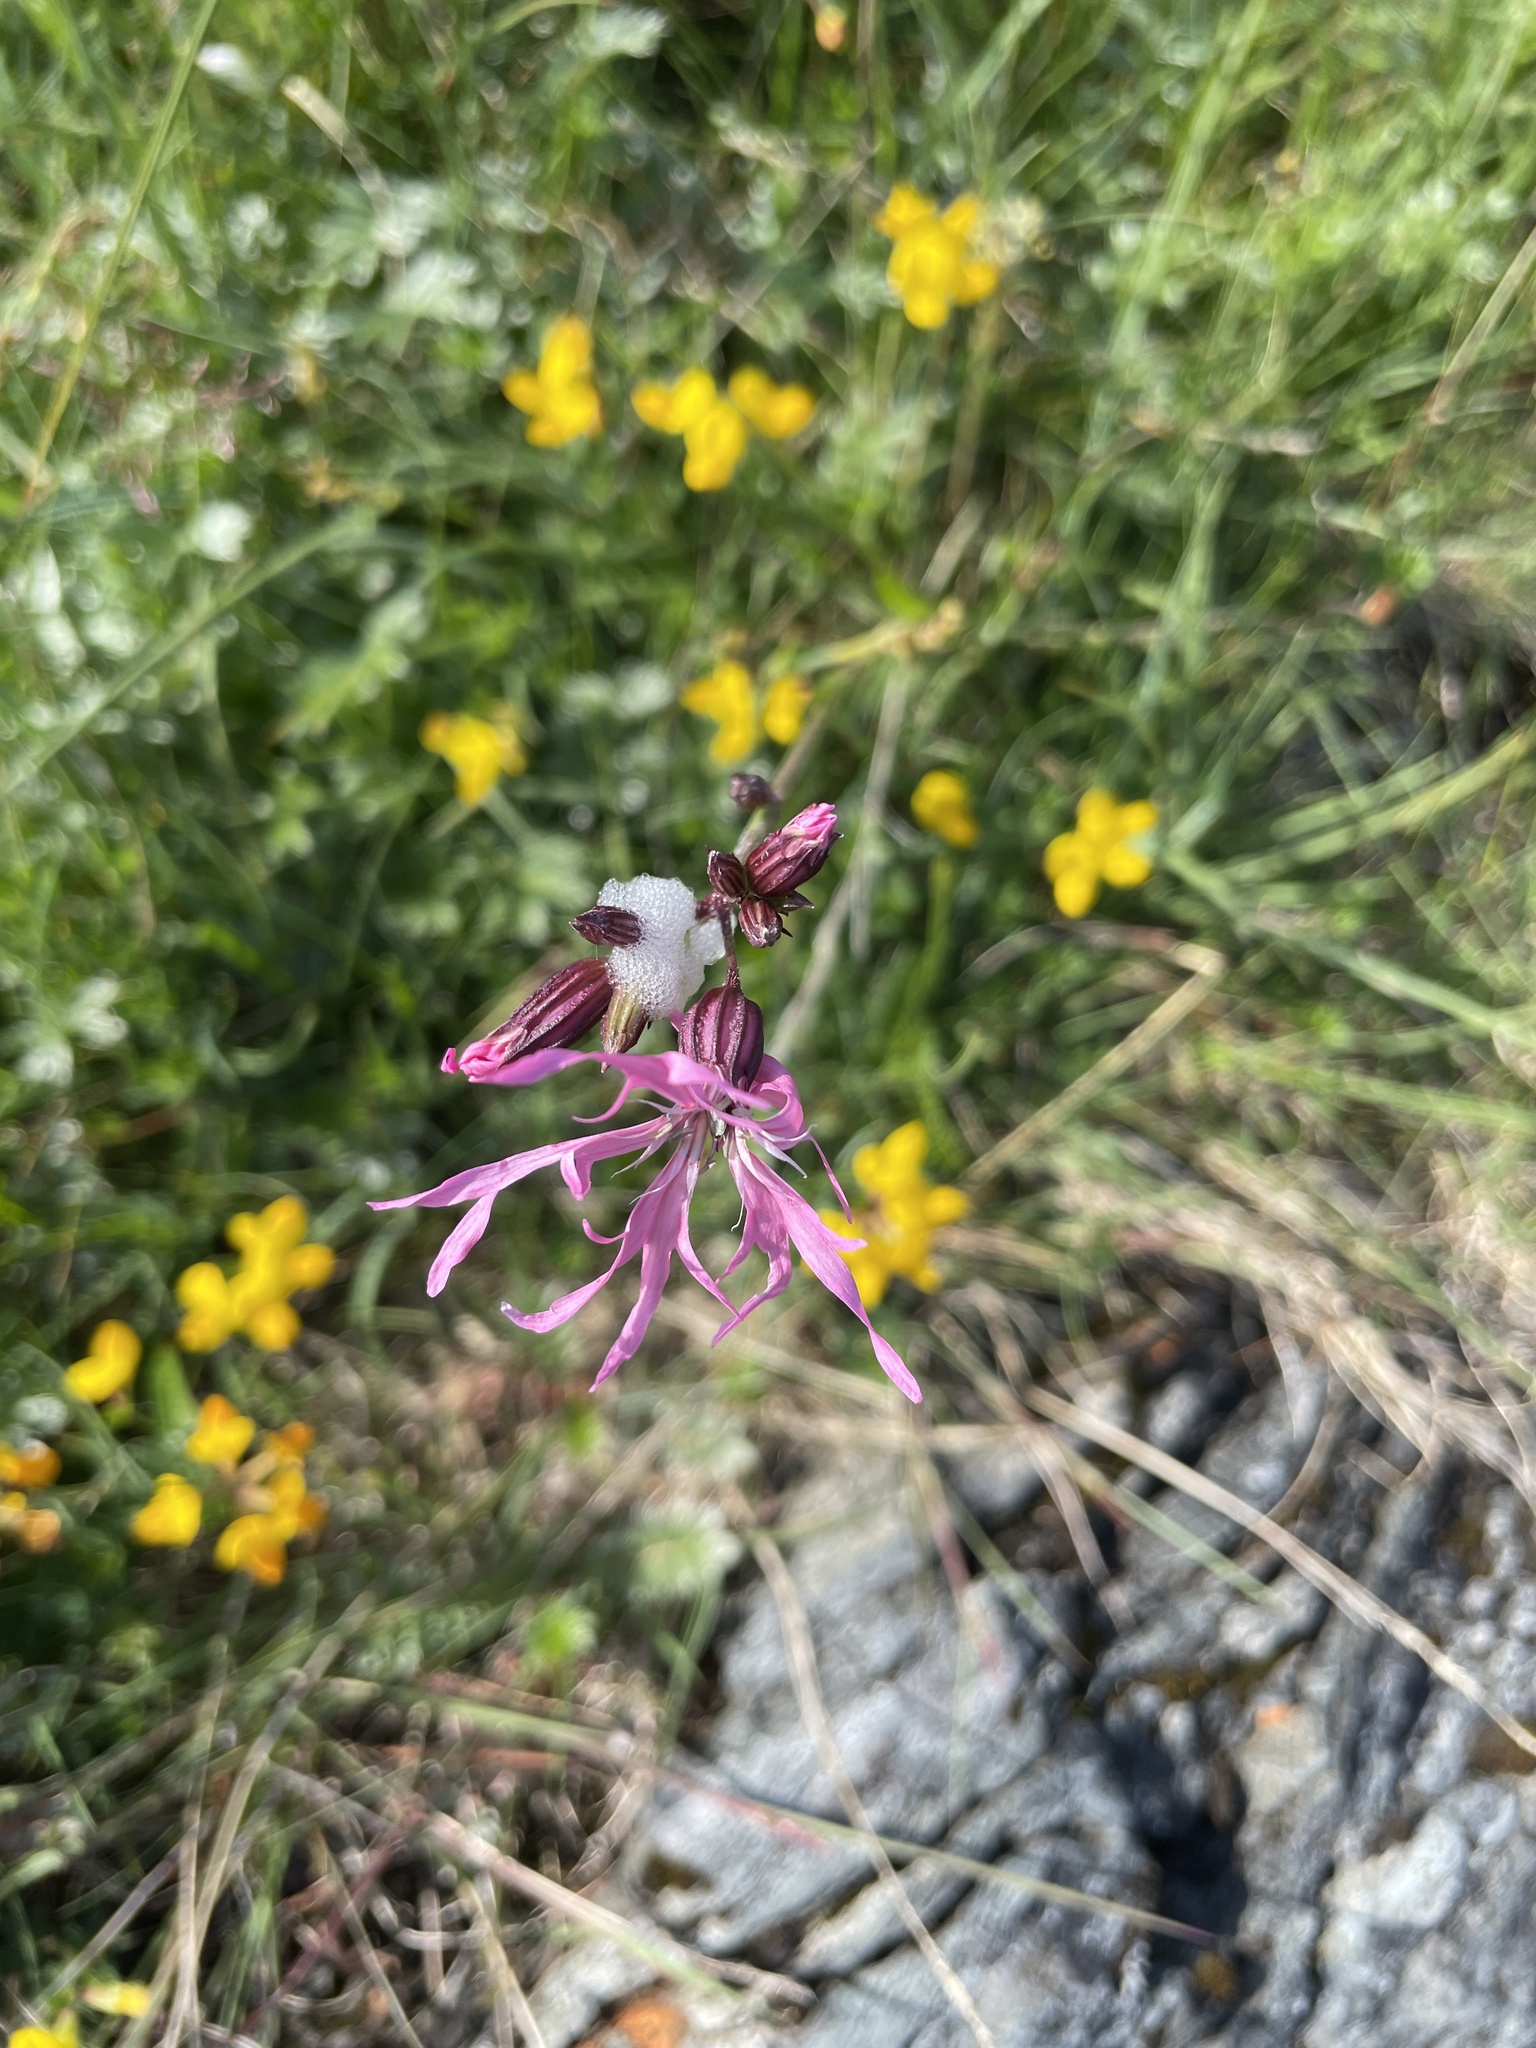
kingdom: Plantae
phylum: Tracheophyta
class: Magnoliopsida
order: Caryophyllales
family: Caryophyllaceae
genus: Silene
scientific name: Silene flos-cuculi
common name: Ragged-robin
